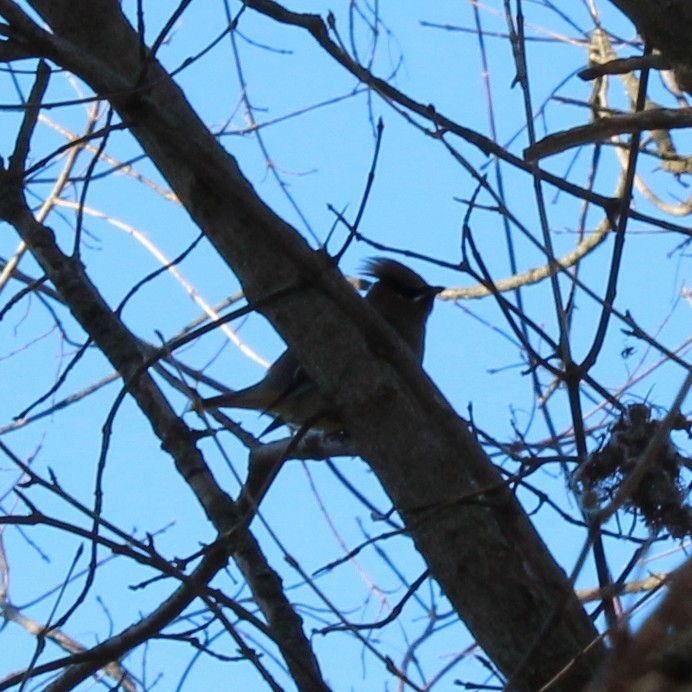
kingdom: Animalia
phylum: Chordata
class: Aves
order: Passeriformes
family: Bombycillidae
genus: Bombycilla
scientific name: Bombycilla cedrorum
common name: Cedar waxwing
